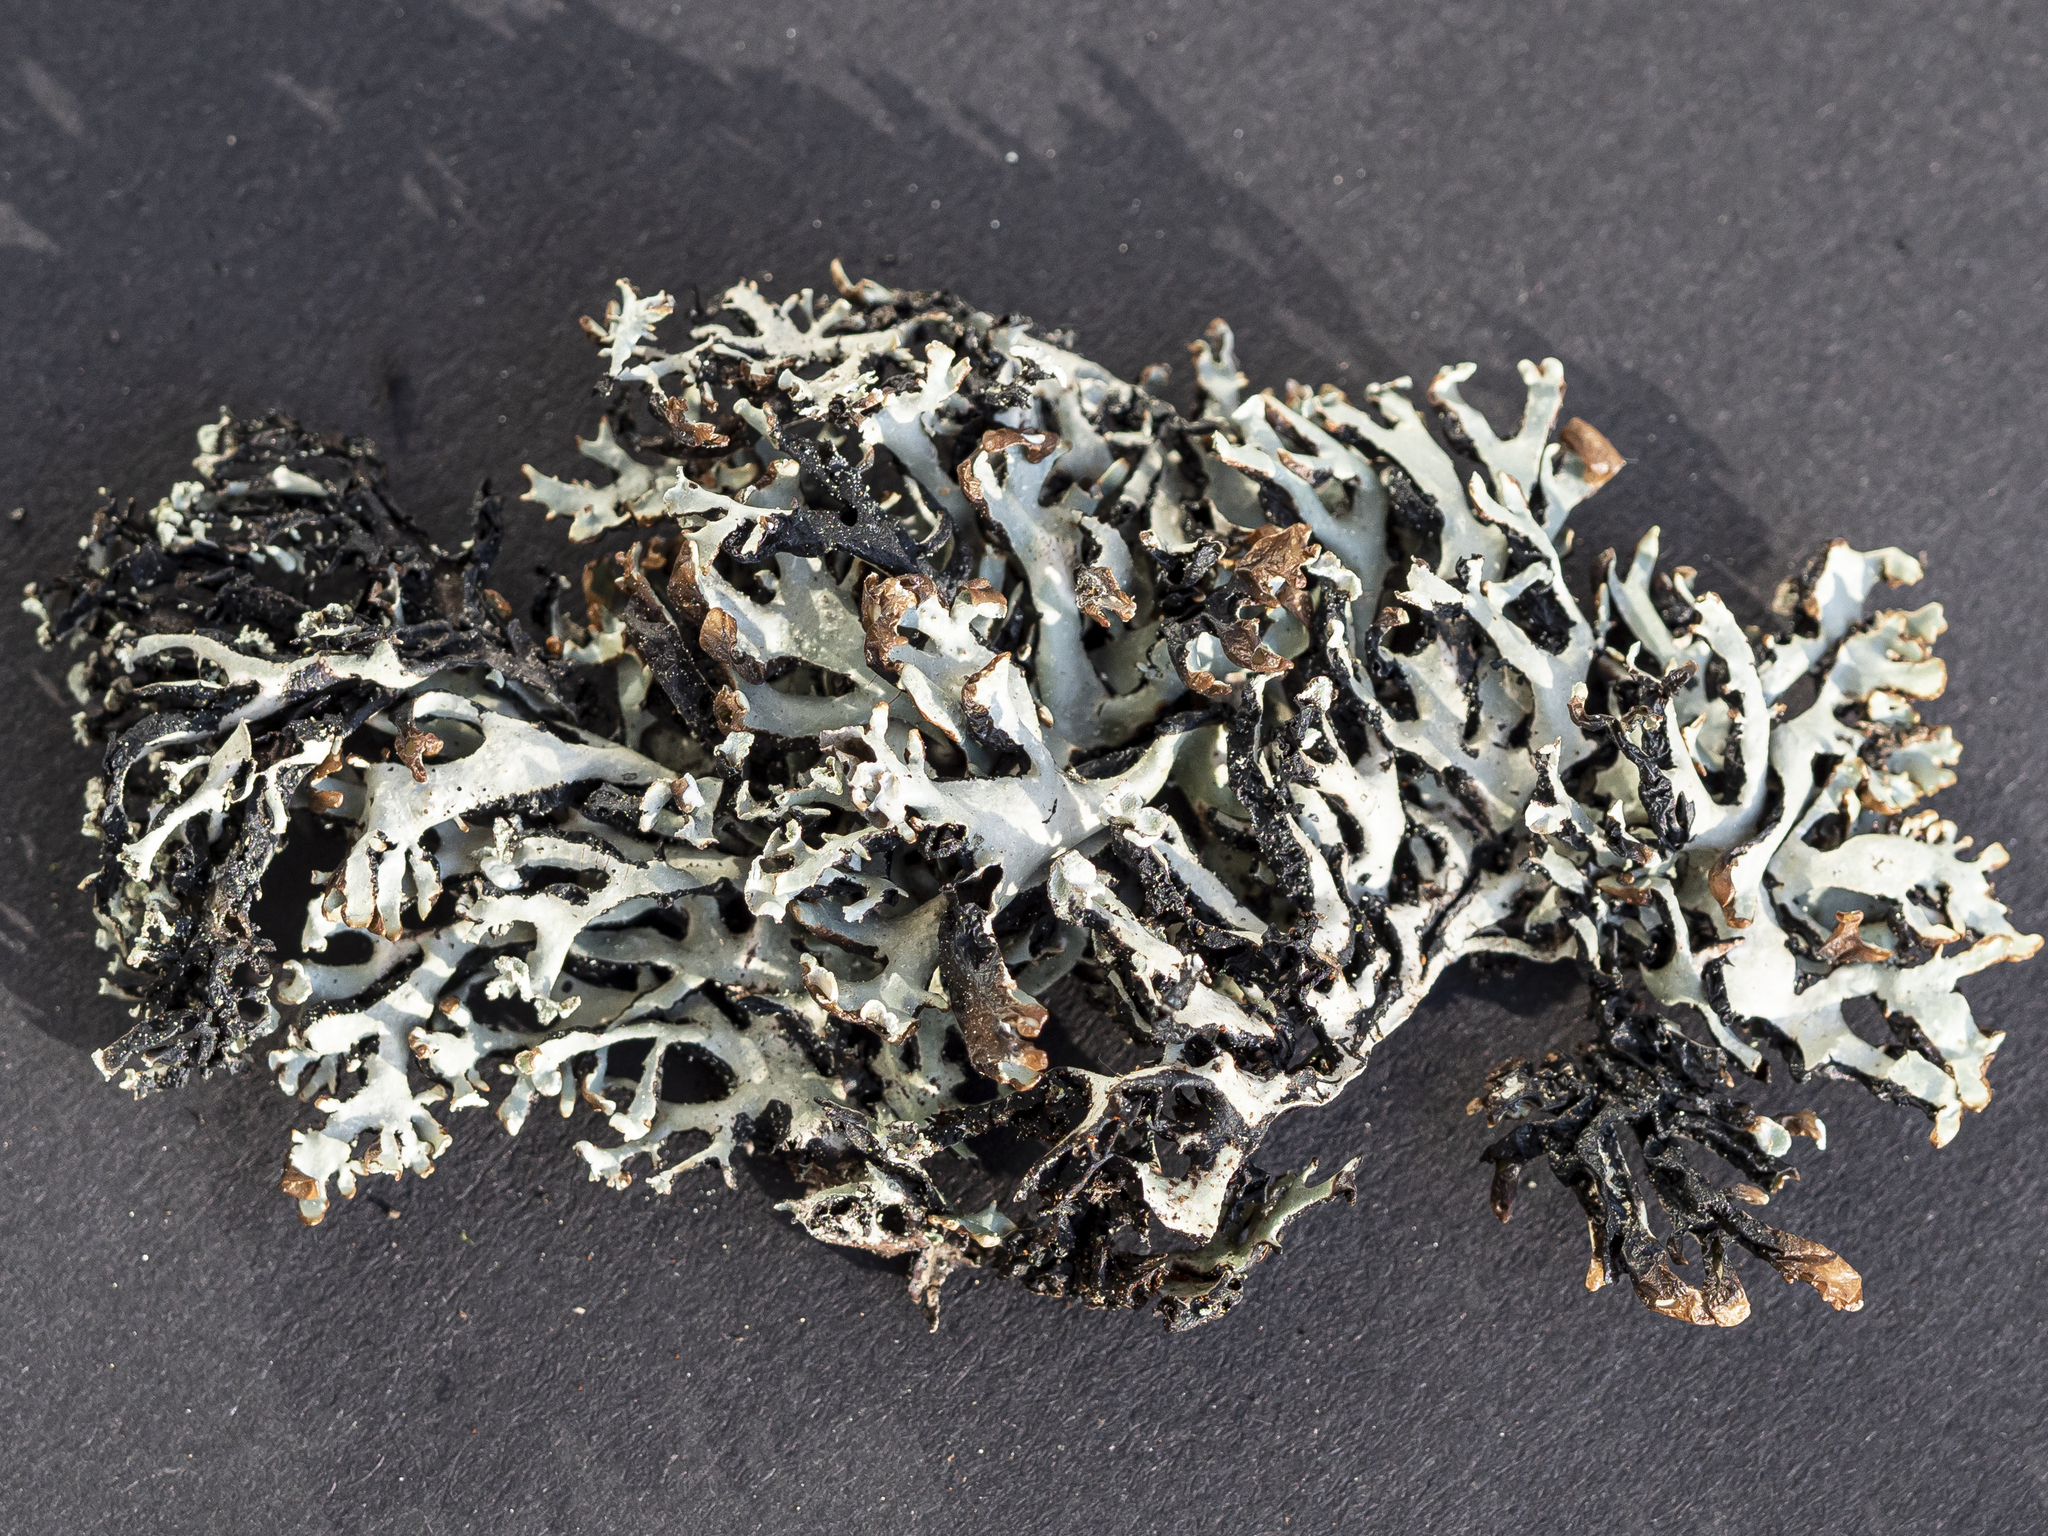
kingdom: Fungi
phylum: Ascomycota
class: Lecanoromycetes
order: Lecanorales
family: Parmeliaceae
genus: Hypogymnia
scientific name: Hypogymnia vittata
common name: Brownish monk's-hood lichen
